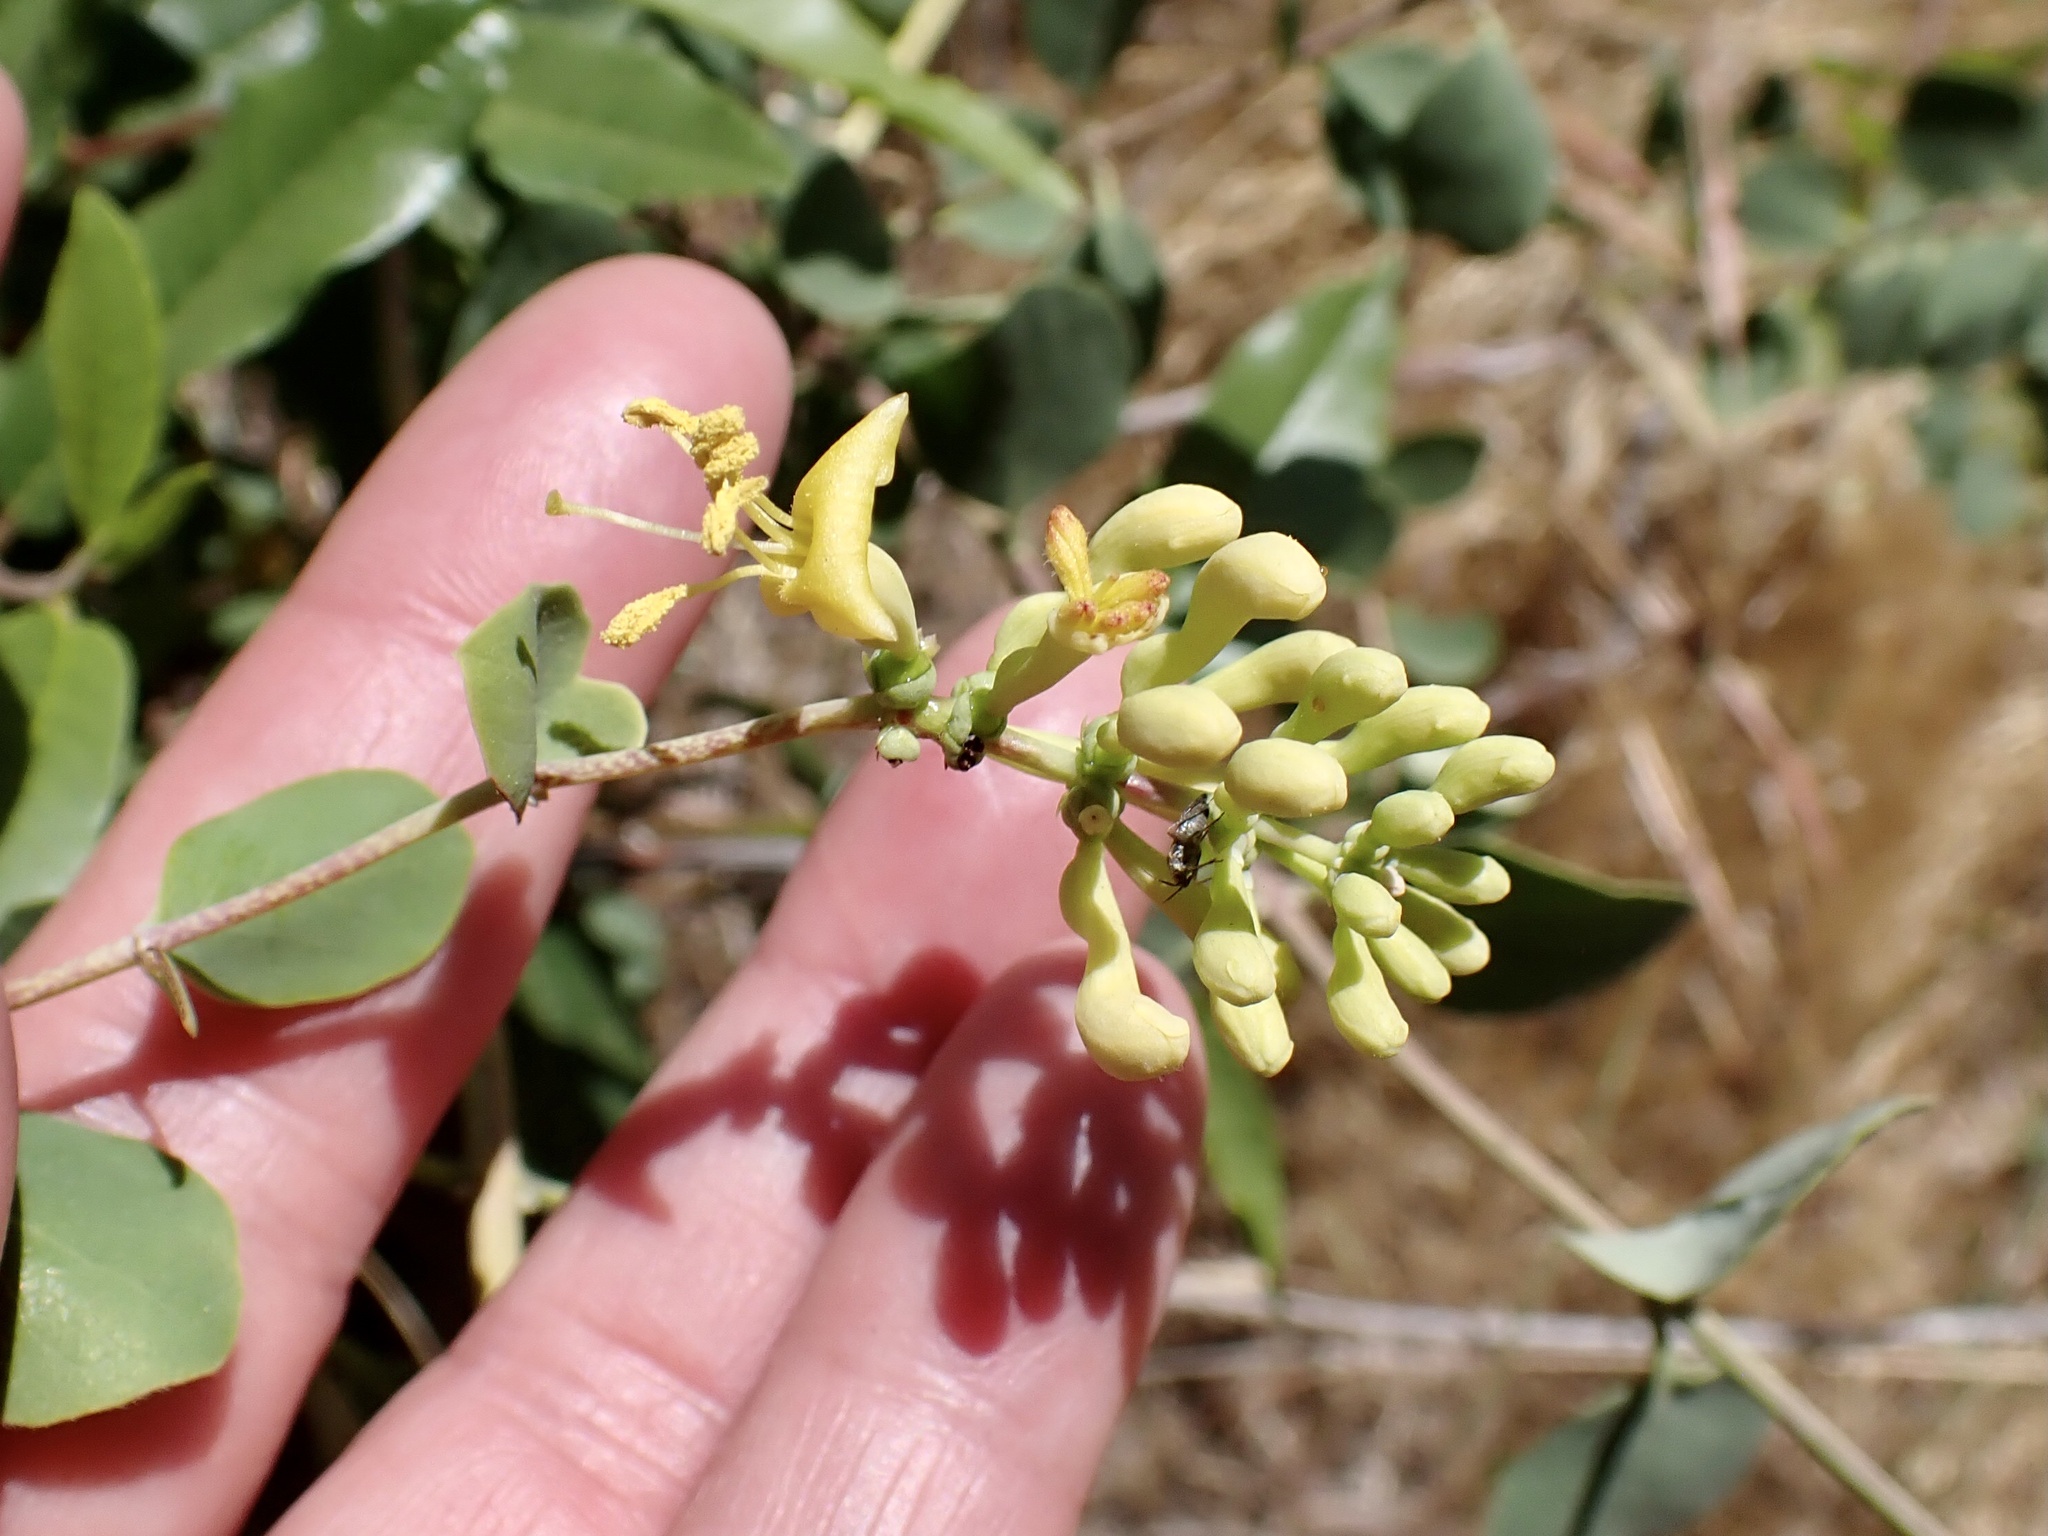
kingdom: Plantae
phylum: Tracheophyta
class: Magnoliopsida
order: Dipsacales
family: Caprifoliaceae
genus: Lonicera
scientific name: Lonicera interrupta
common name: Chaparral honeysuckle
